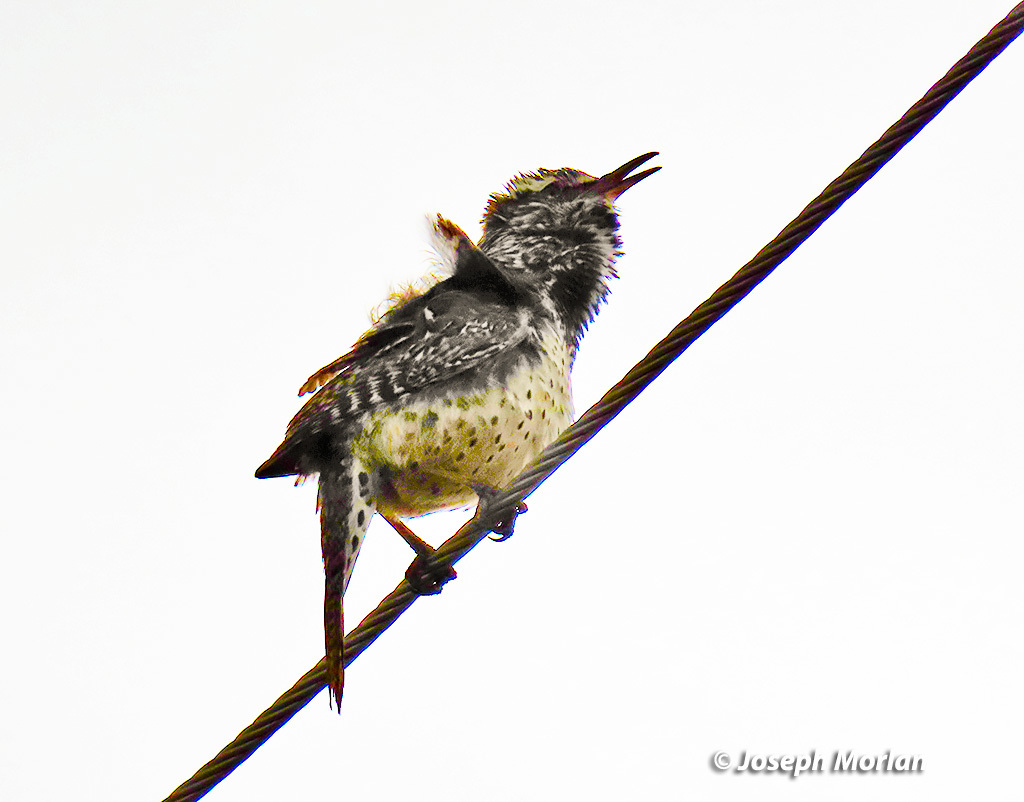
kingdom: Animalia
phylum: Chordata
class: Aves
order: Passeriformes
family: Troglodytidae
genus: Campylorhynchus
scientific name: Campylorhynchus brunneicapillus
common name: Cactus wren
